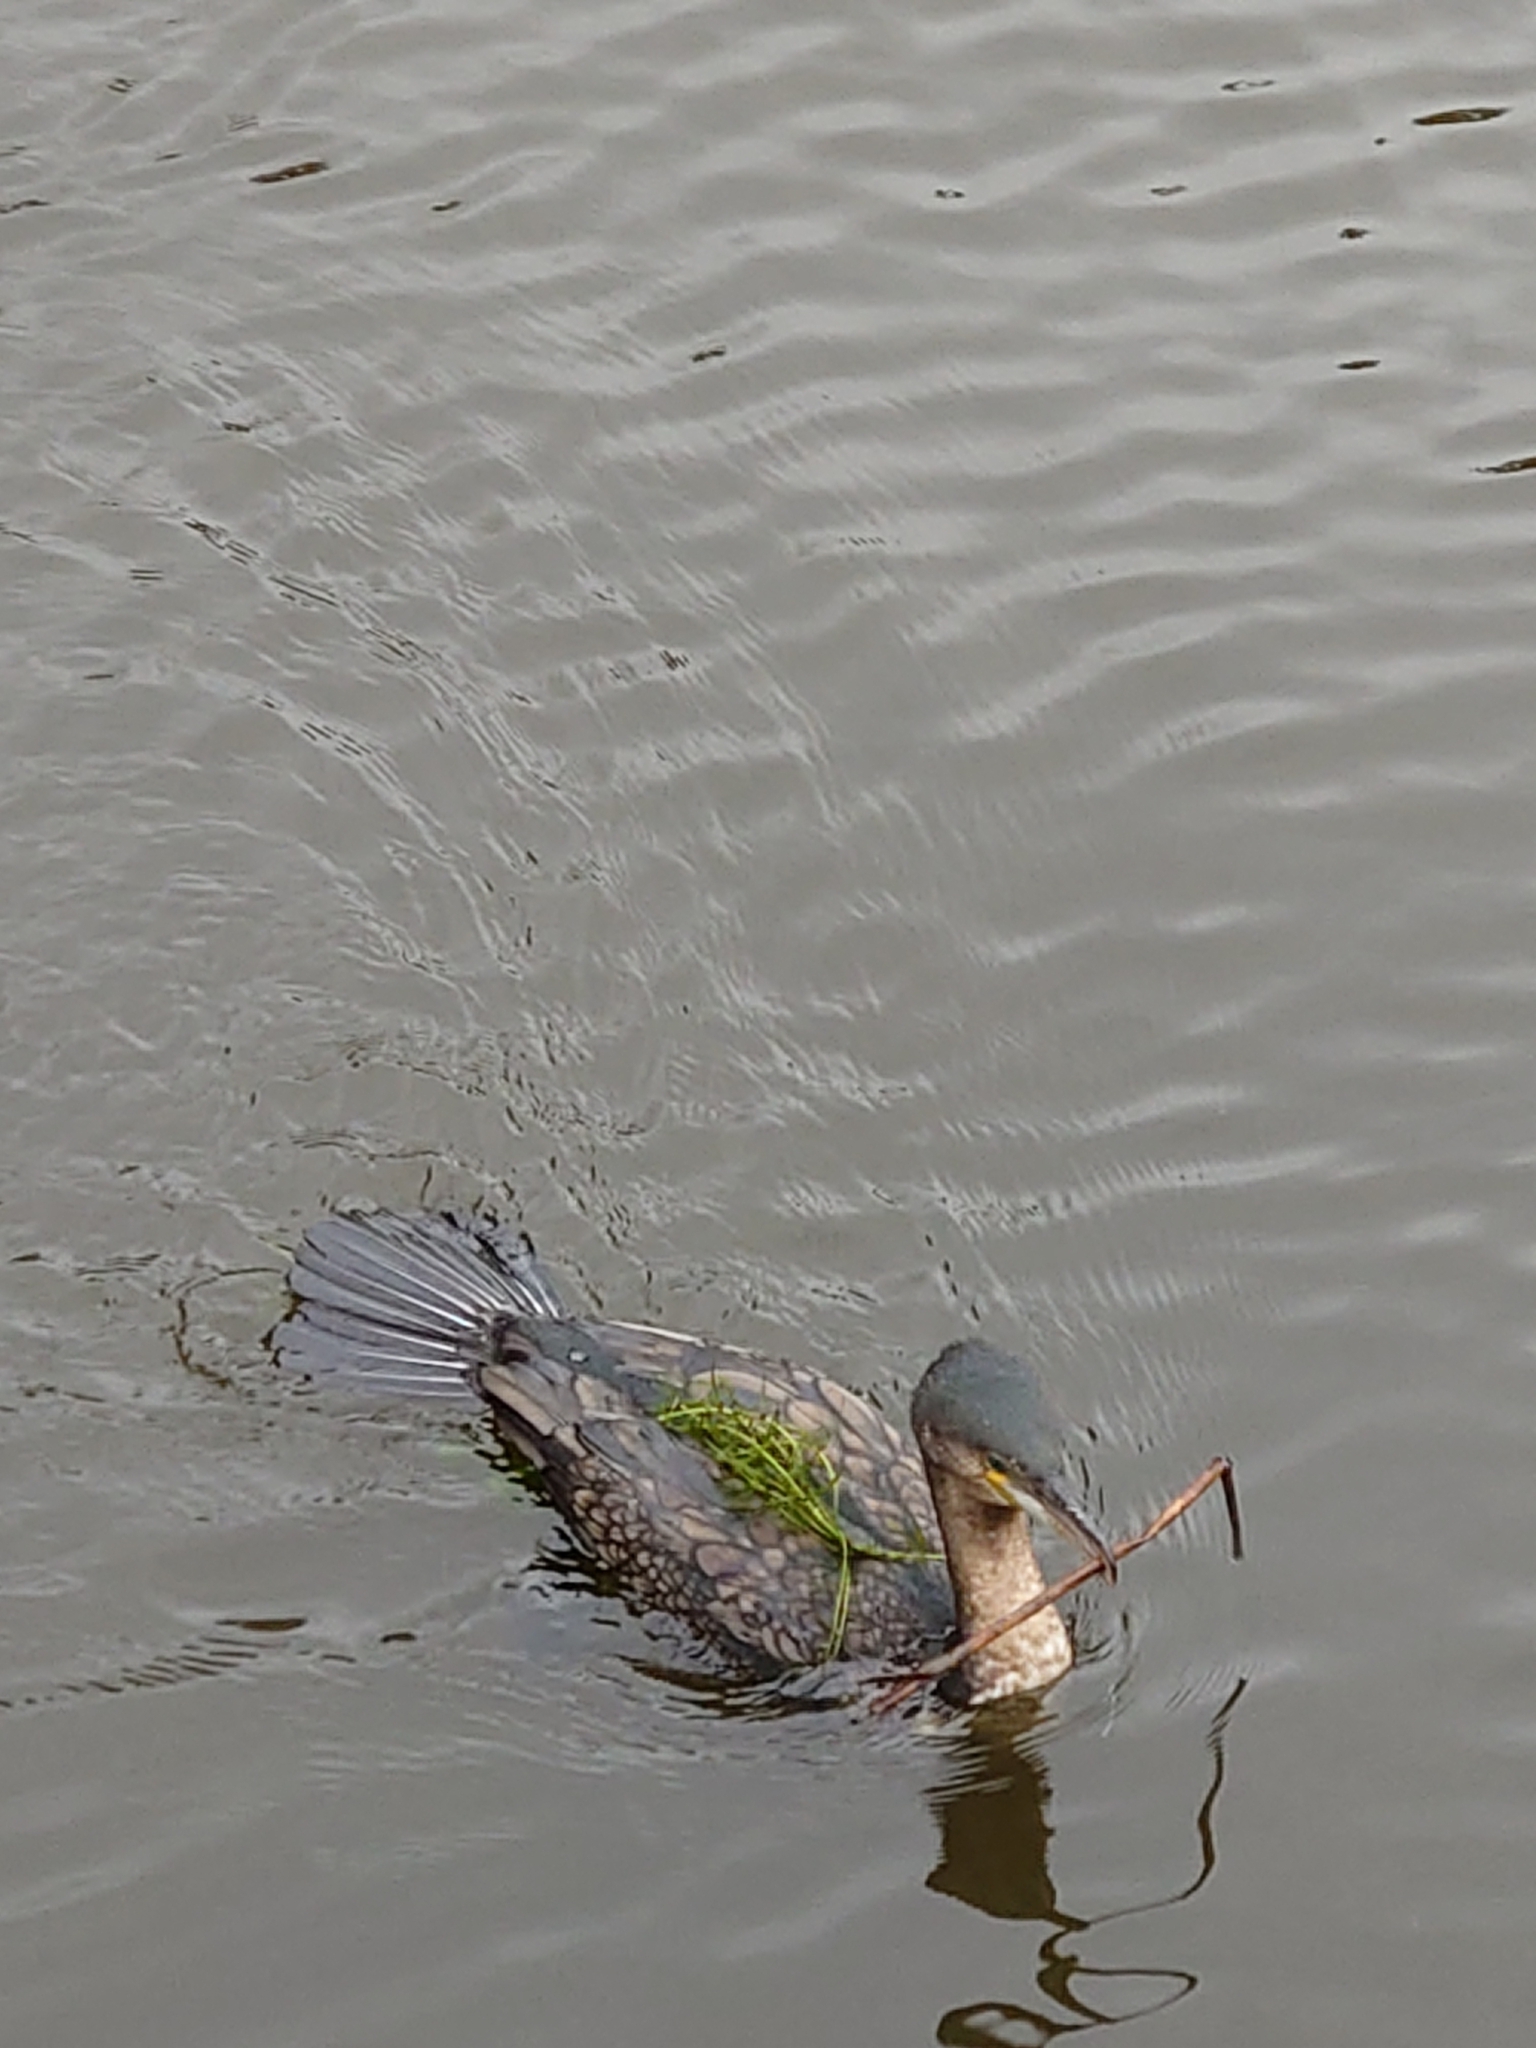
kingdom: Animalia
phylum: Chordata
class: Aves
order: Suliformes
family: Phalacrocoracidae
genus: Phalacrocorax
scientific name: Phalacrocorax carbo
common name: Great cormorant
